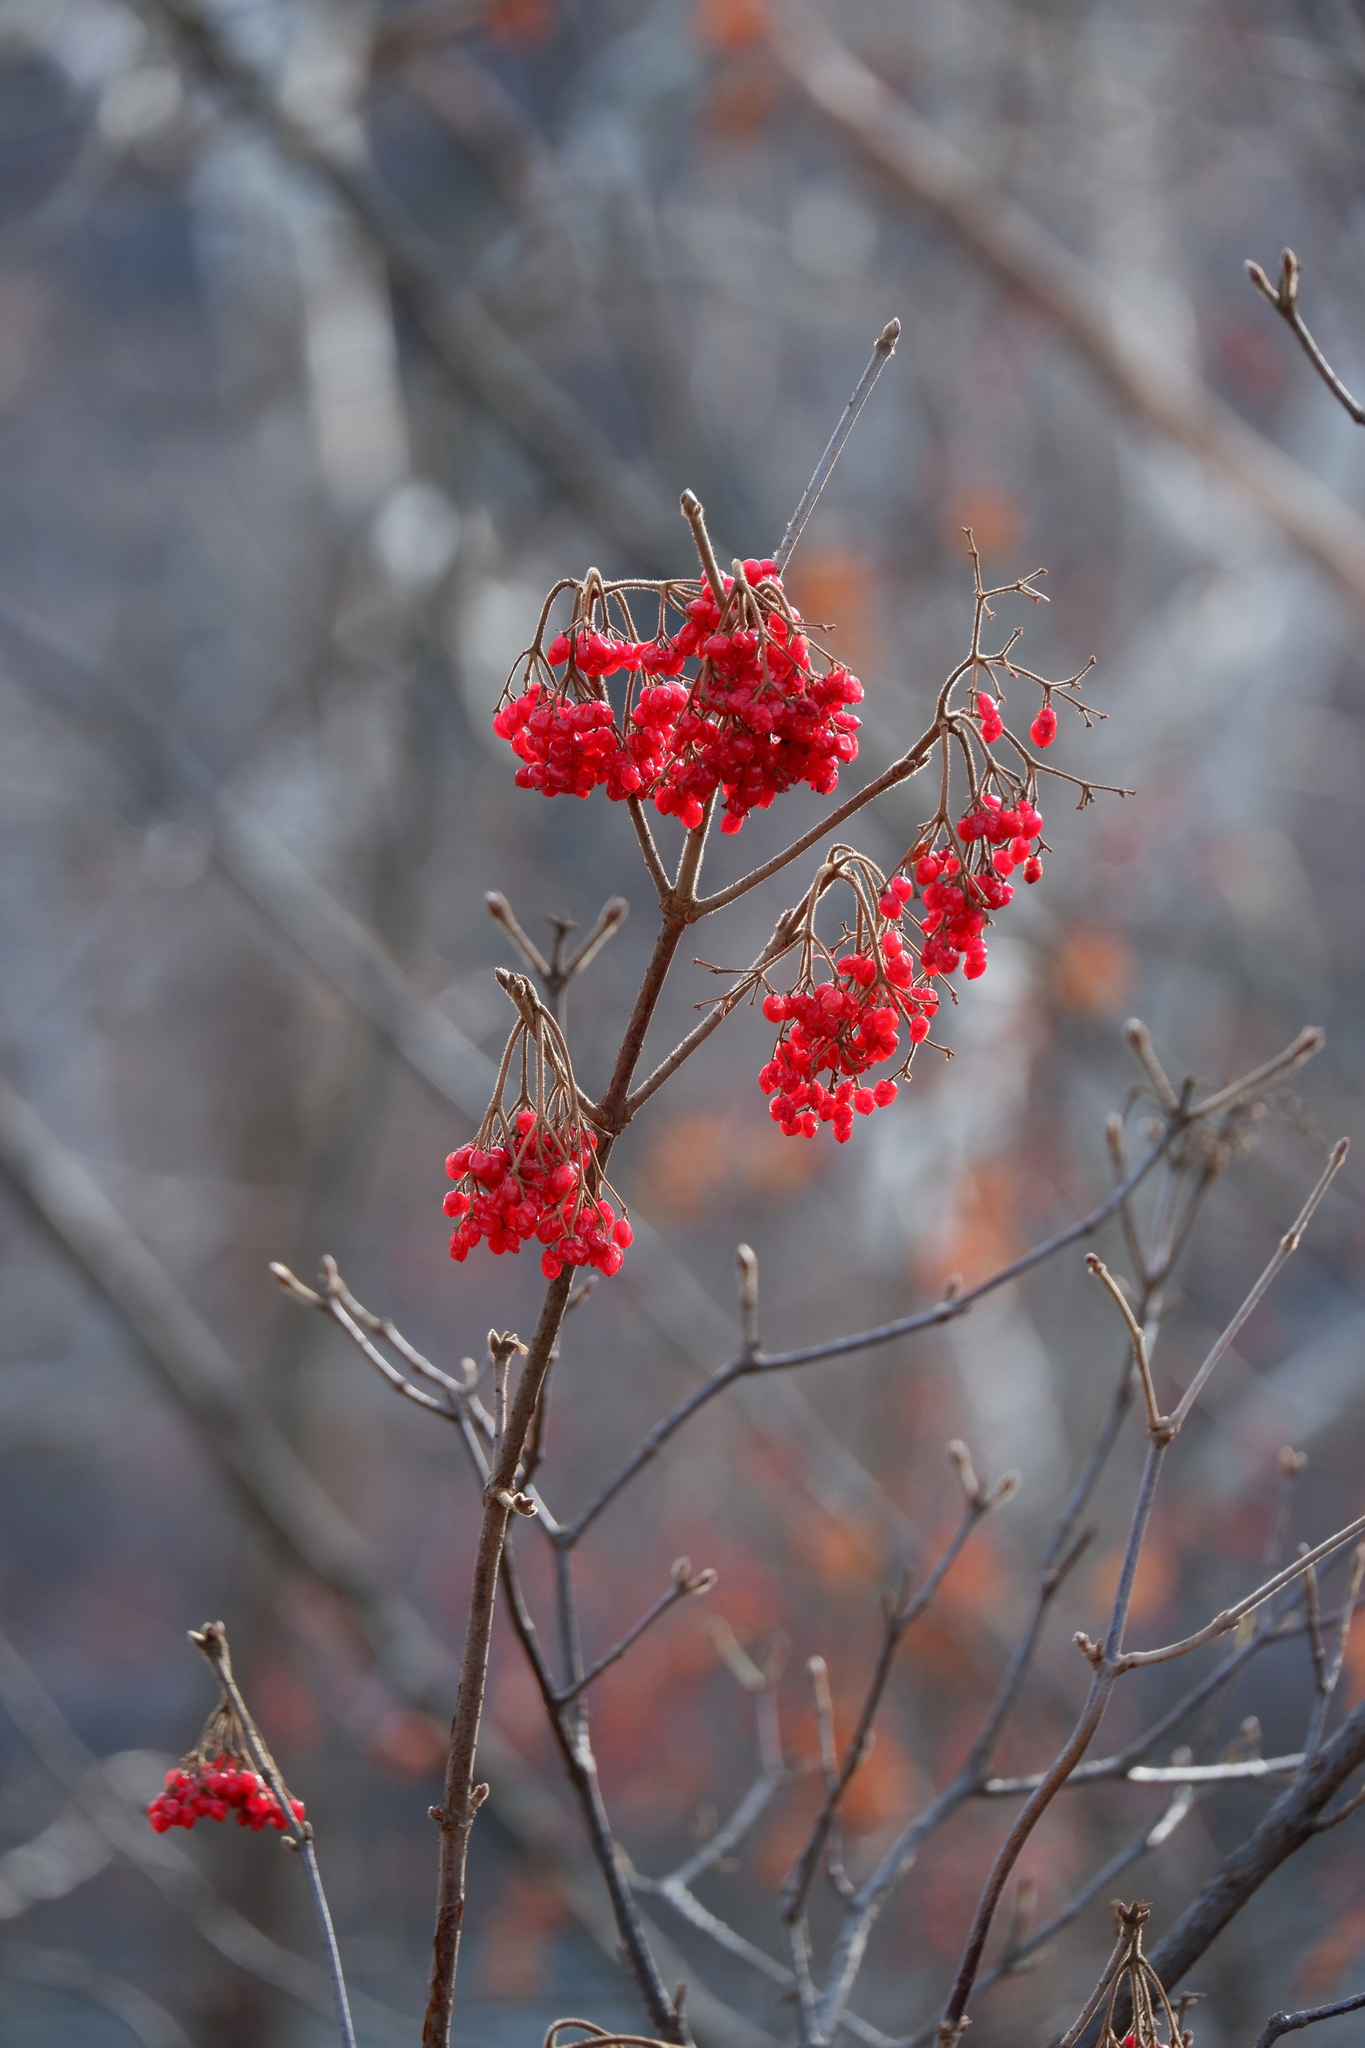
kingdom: Plantae
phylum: Tracheophyta
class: Magnoliopsida
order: Dipsacales
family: Viburnaceae
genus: Viburnum
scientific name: Viburnum dilatatum
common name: Linden arrowwood
